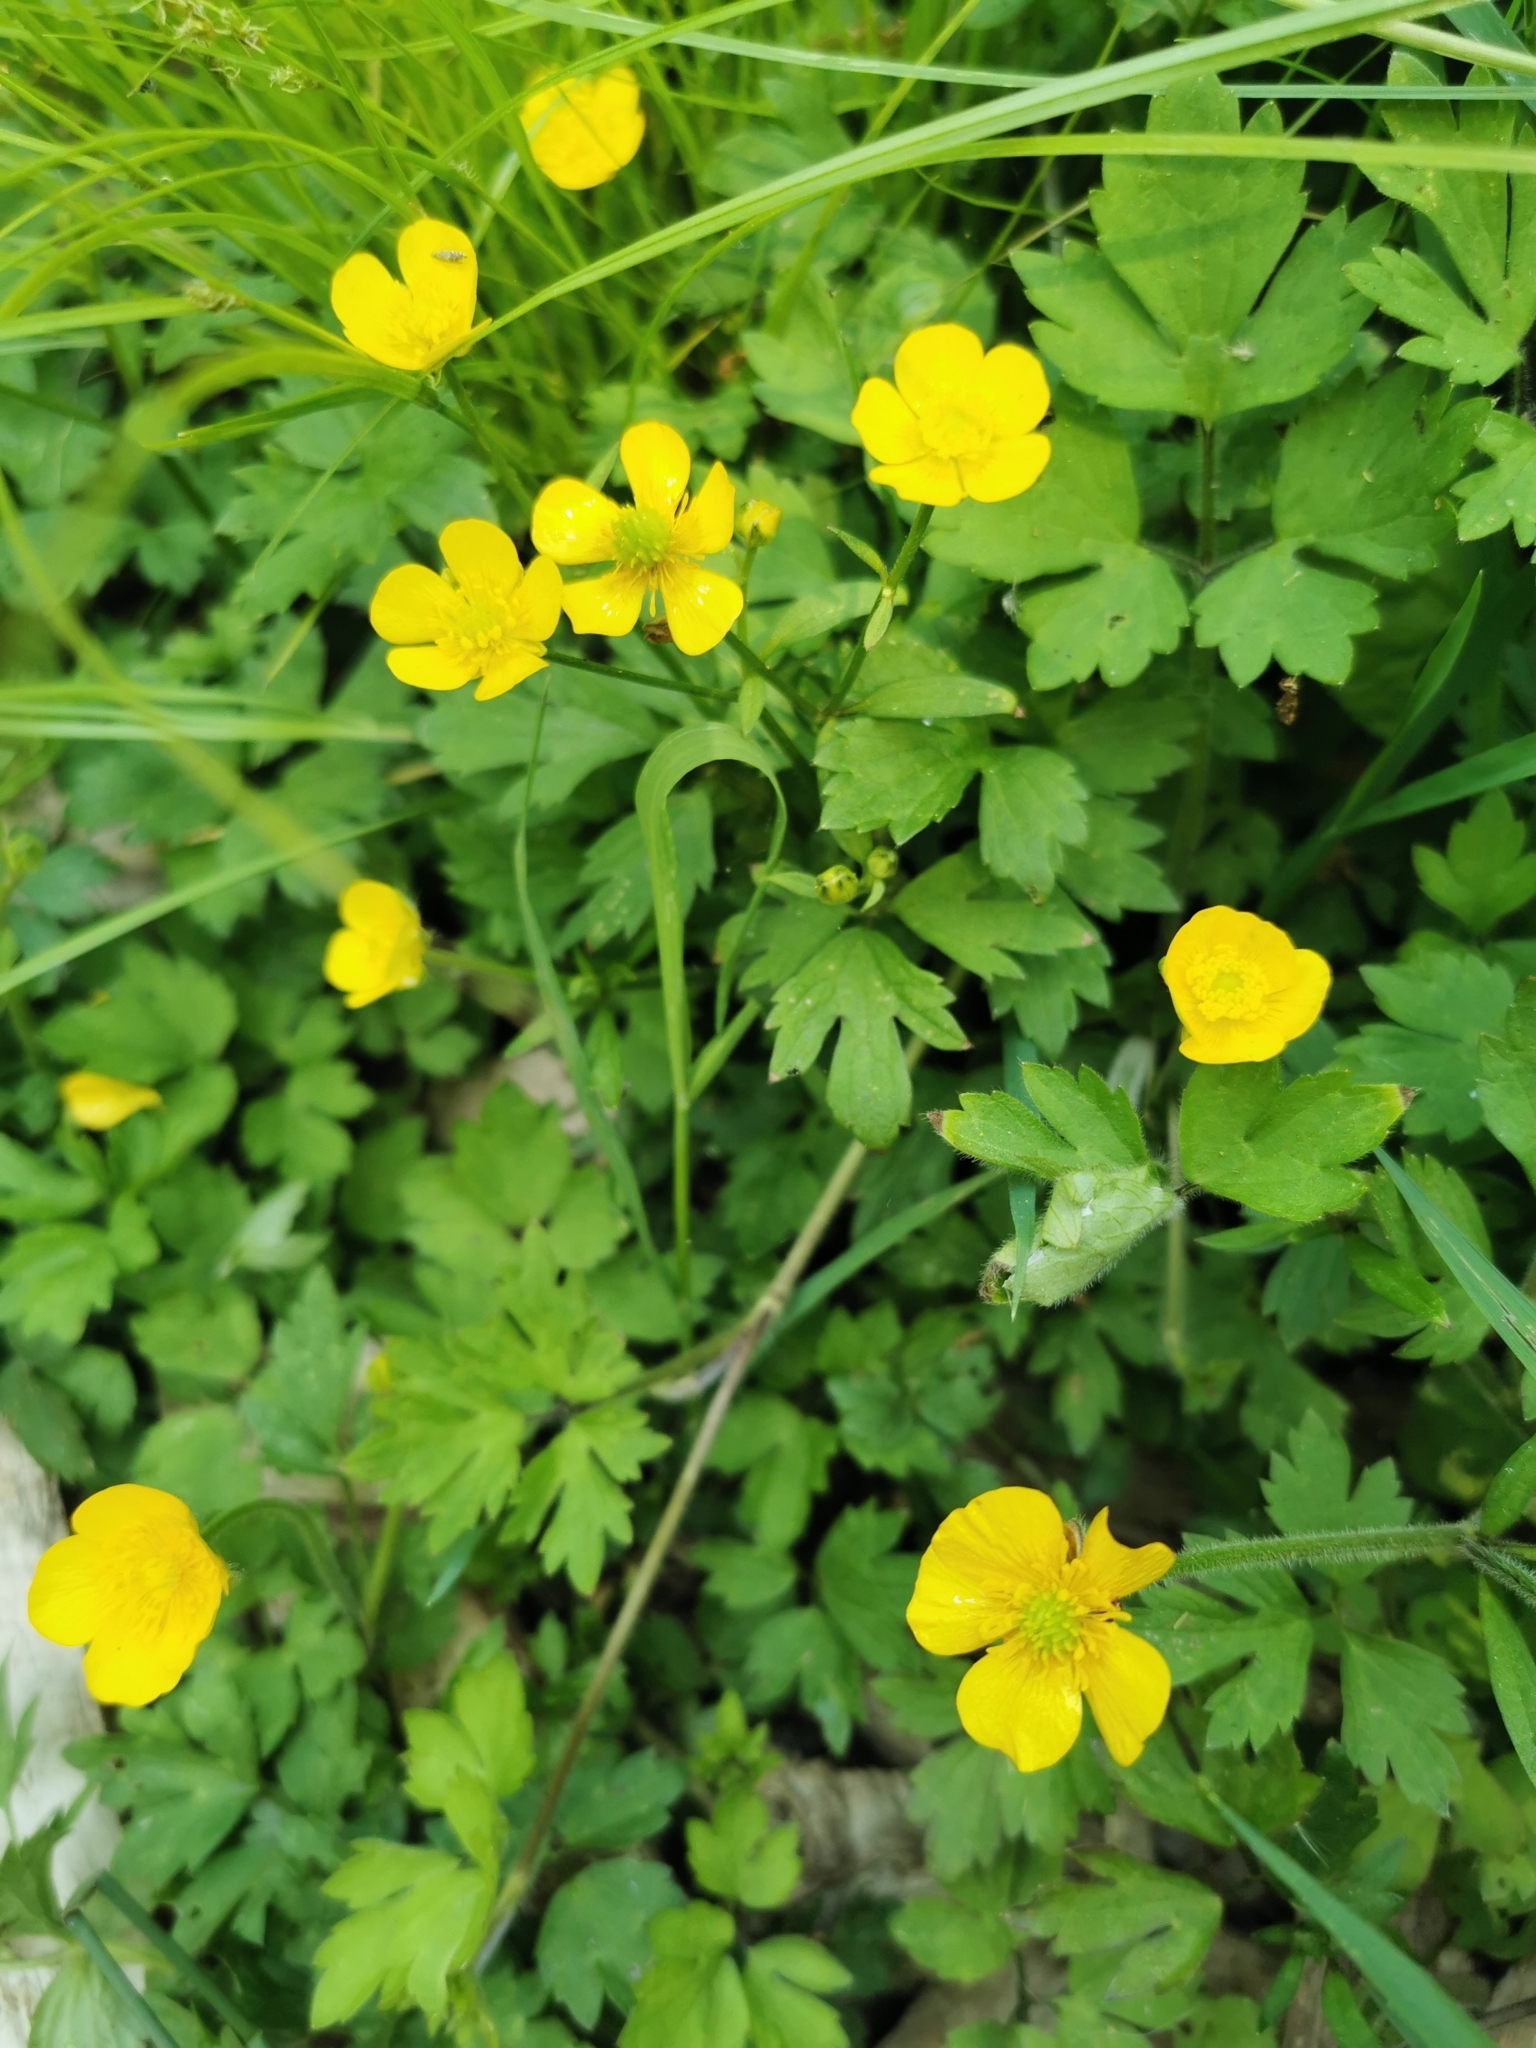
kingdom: Plantae
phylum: Tracheophyta
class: Magnoliopsida
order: Ranunculales
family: Ranunculaceae
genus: Ranunculus
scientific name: Ranunculus repens
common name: Creeping buttercup
